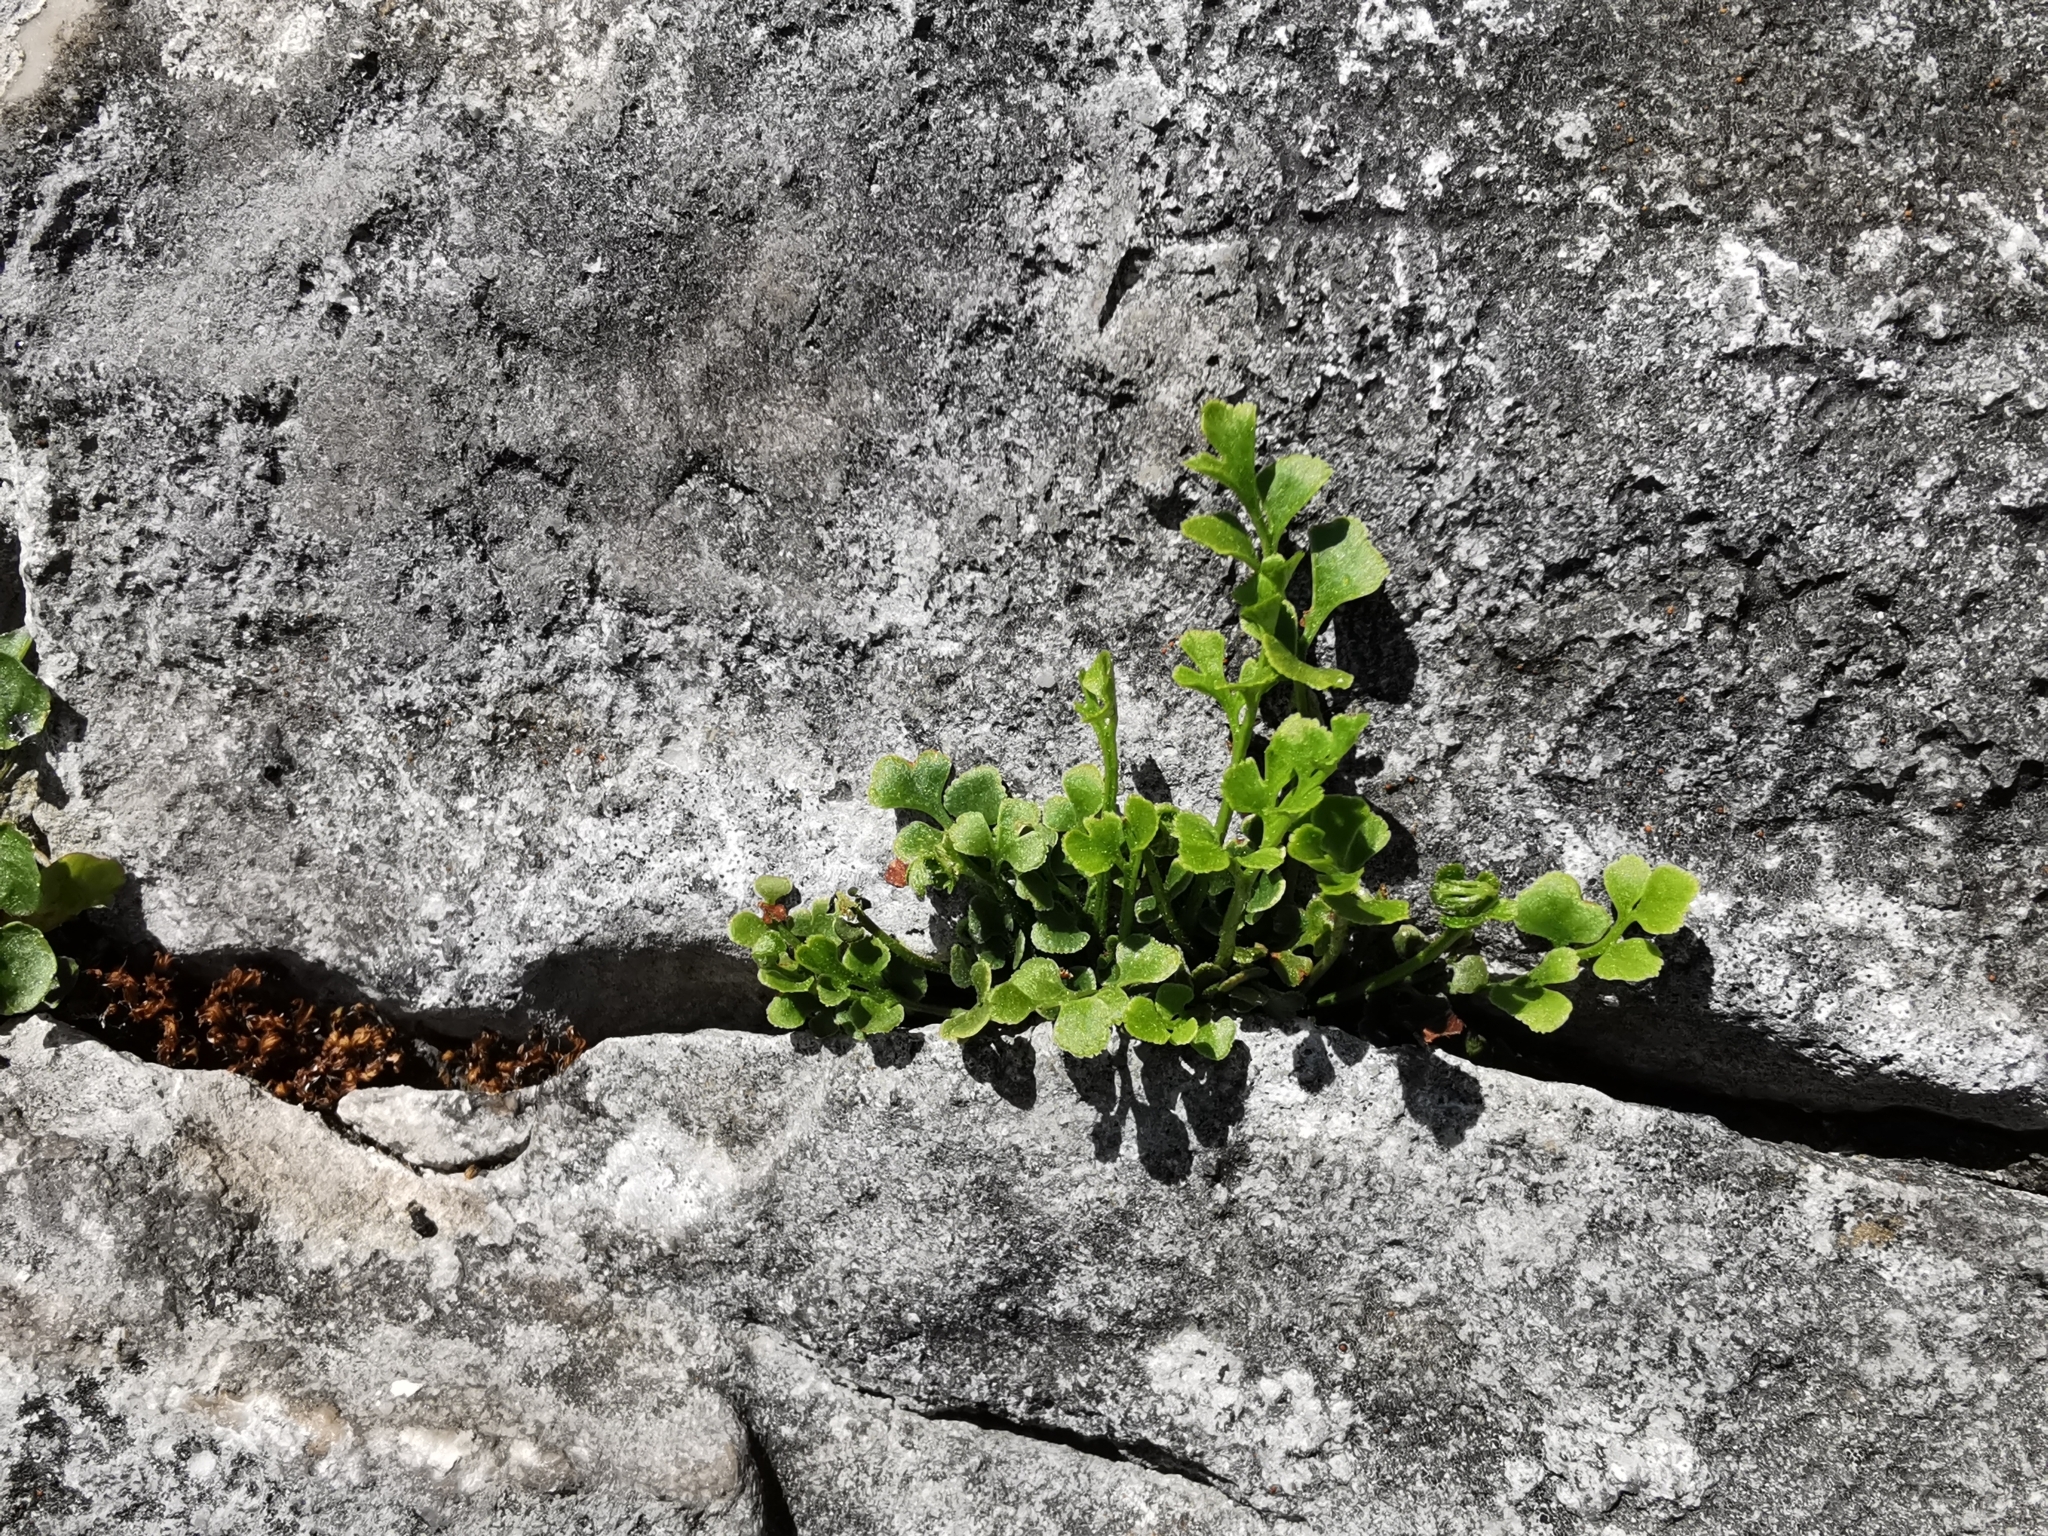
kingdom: Plantae
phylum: Tracheophyta
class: Polypodiopsida
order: Polypodiales
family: Aspleniaceae
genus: Asplenium
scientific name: Asplenium ruta-muraria
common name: Wall-rue
